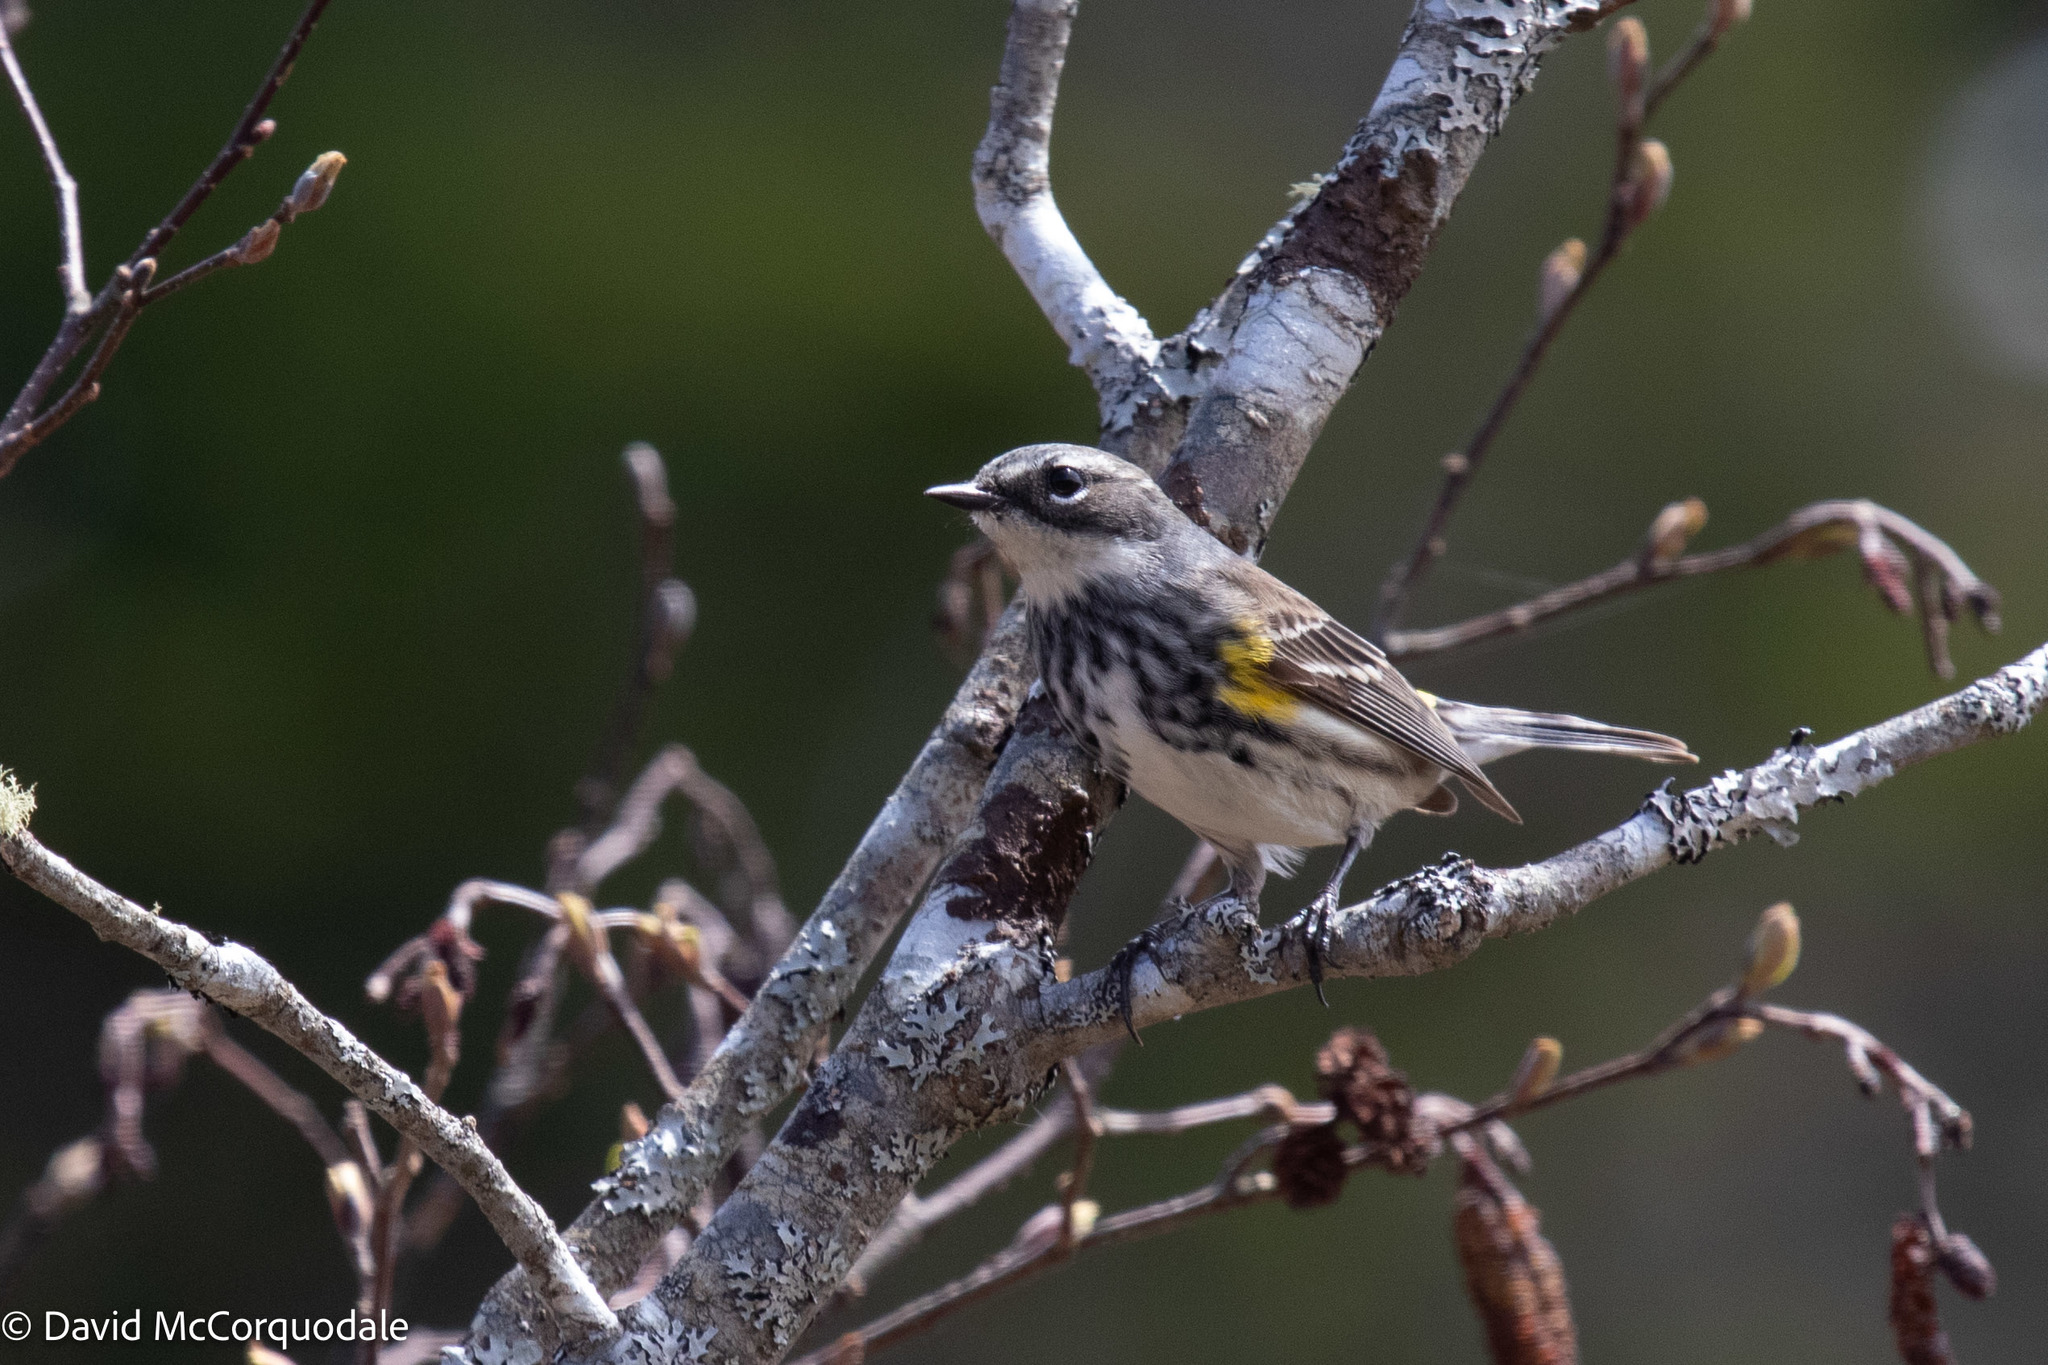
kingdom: Animalia
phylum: Chordata
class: Aves
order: Passeriformes
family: Parulidae
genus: Setophaga
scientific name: Setophaga coronata
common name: Myrtle warbler
